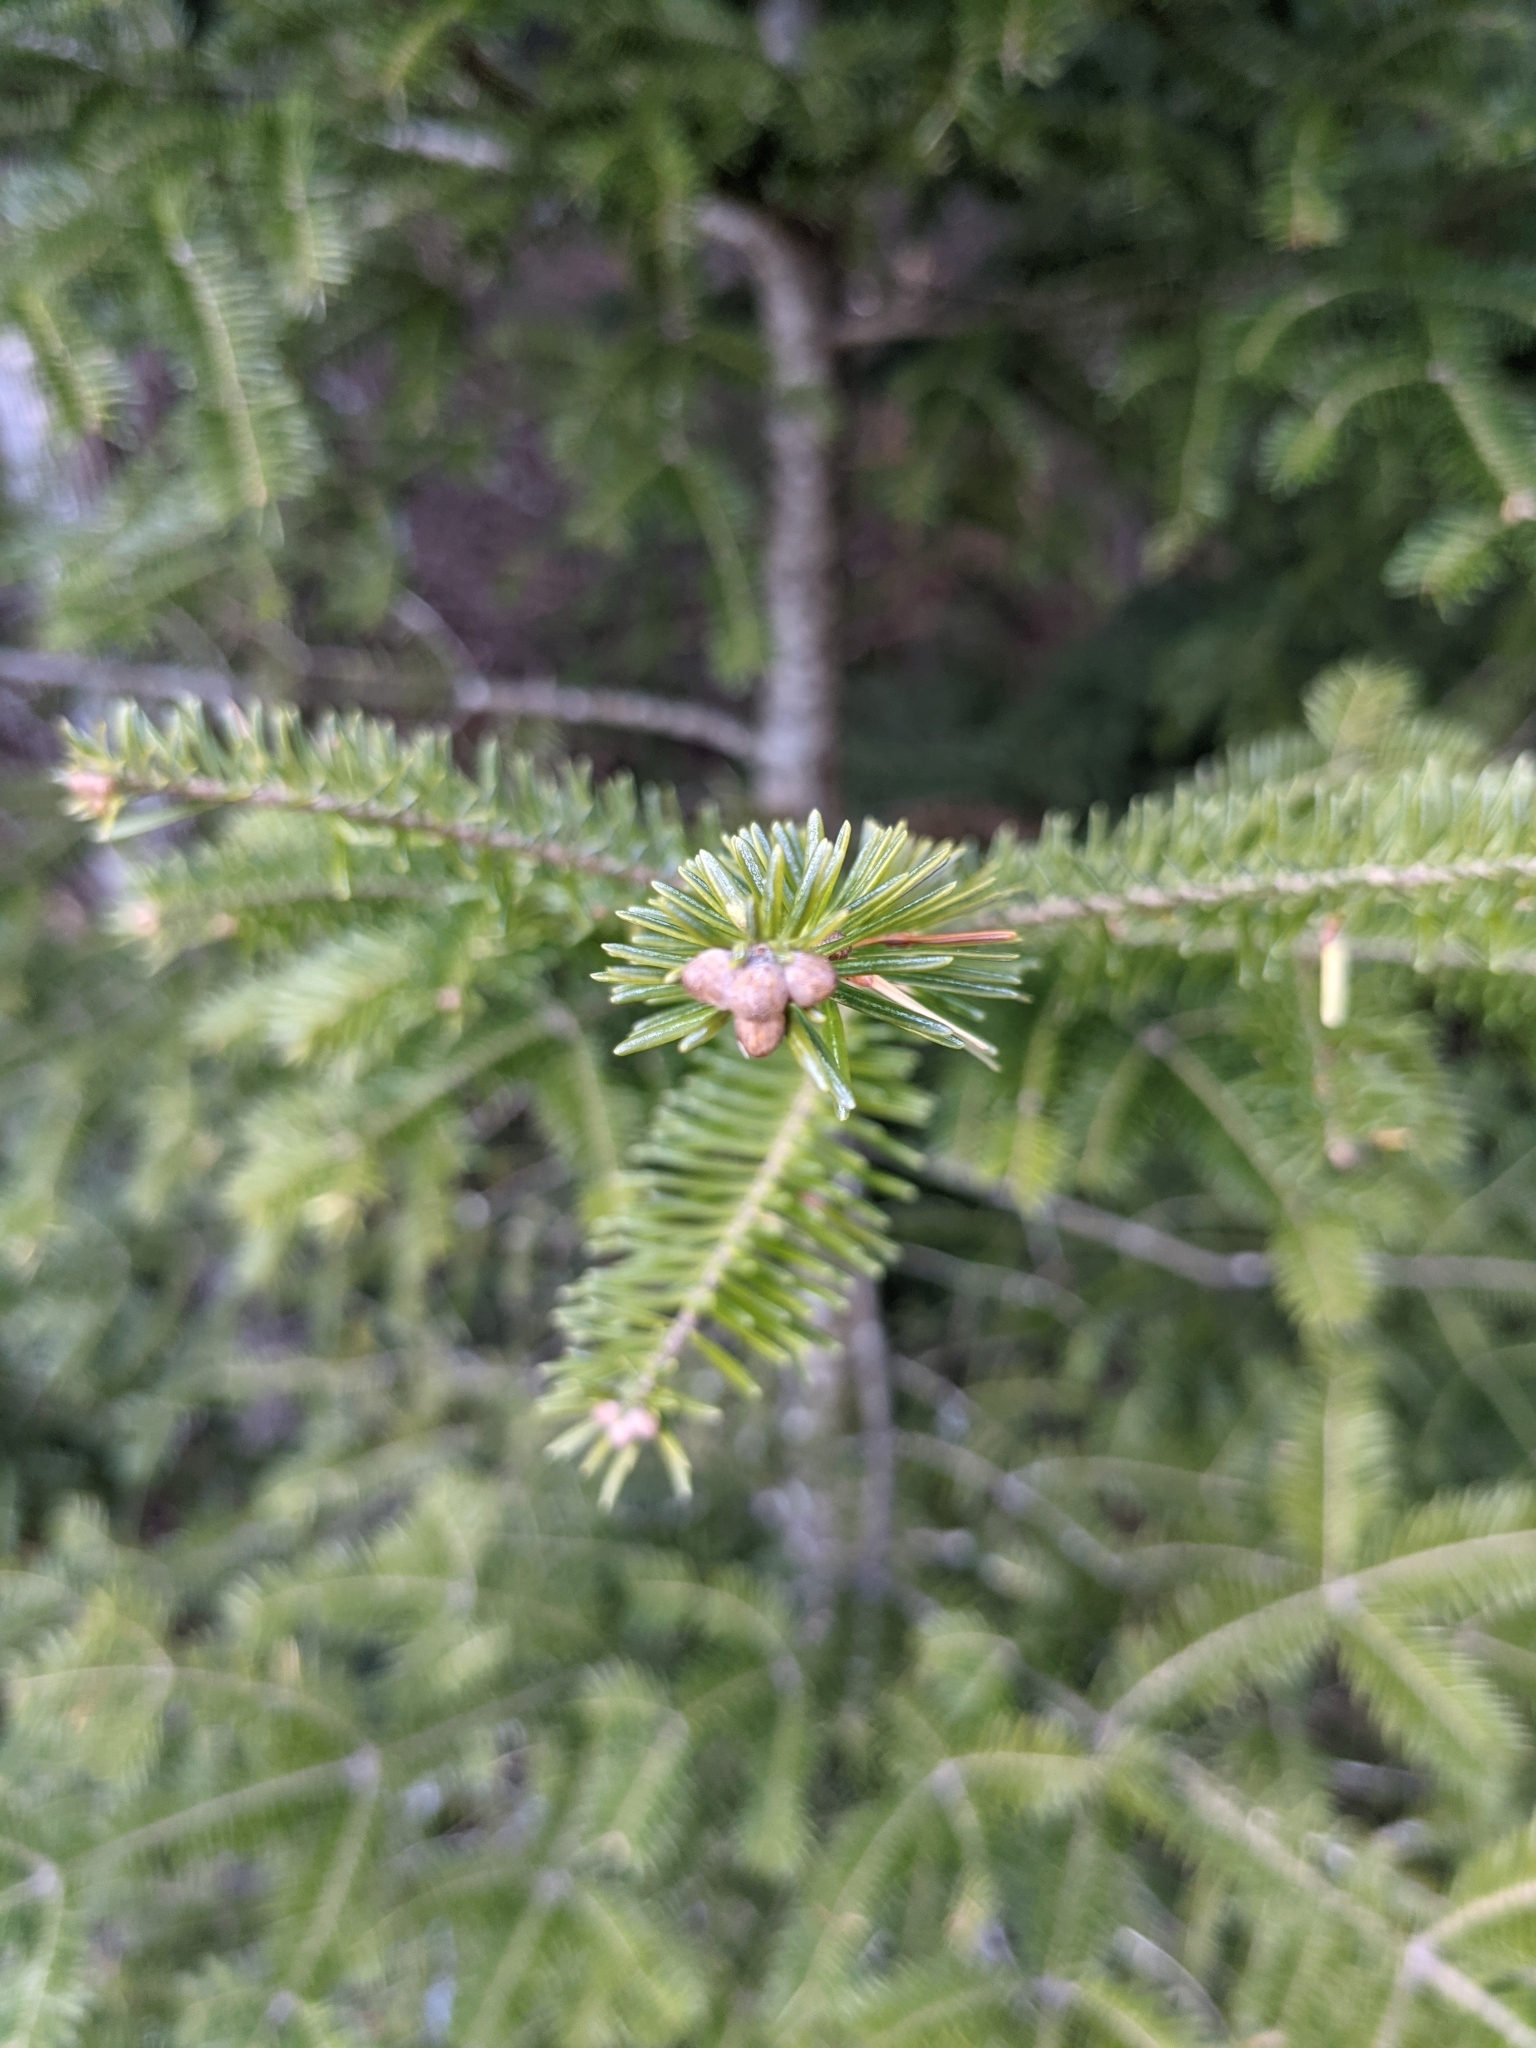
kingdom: Plantae
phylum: Tracheophyta
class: Pinopsida
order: Pinales
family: Pinaceae
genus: Abies
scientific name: Abies balsamea
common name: Balsam fir
